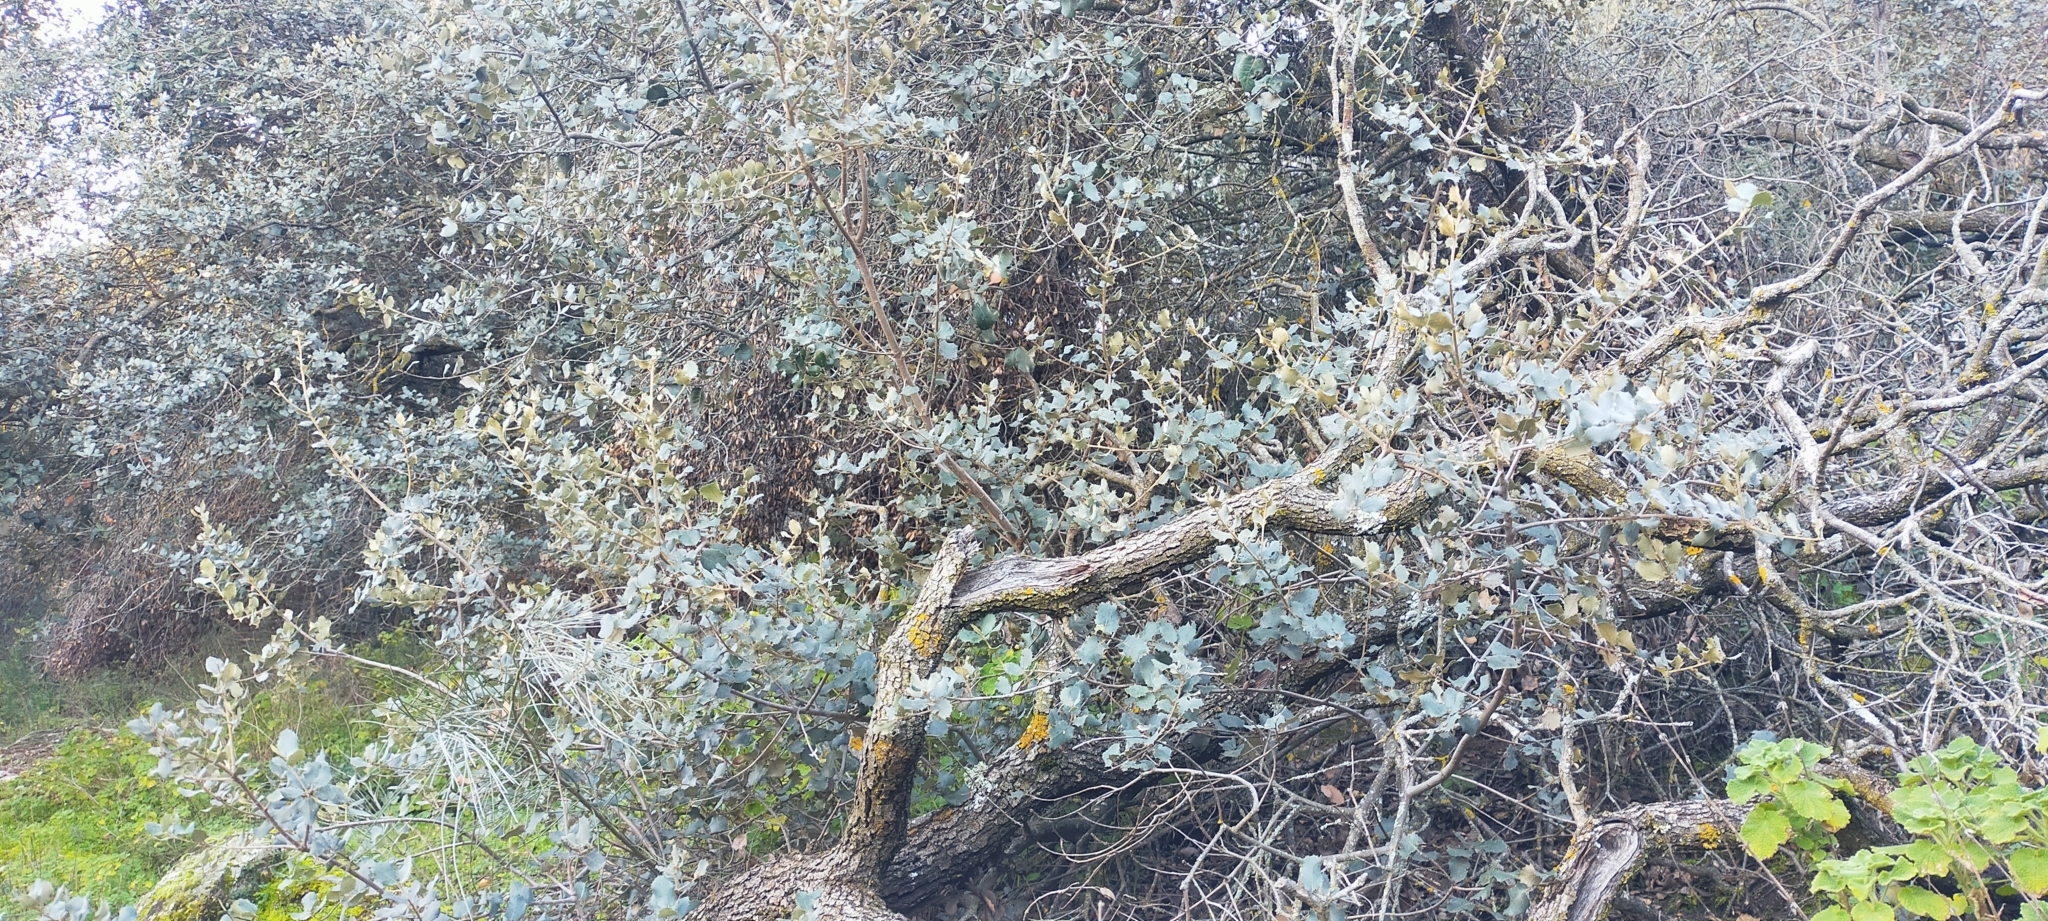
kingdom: Plantae
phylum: Tracheophyta
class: Magnoliopsida
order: Fagales
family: Fagaceae
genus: Quercus
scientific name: Quercus rotundifolia
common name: Holm oak
